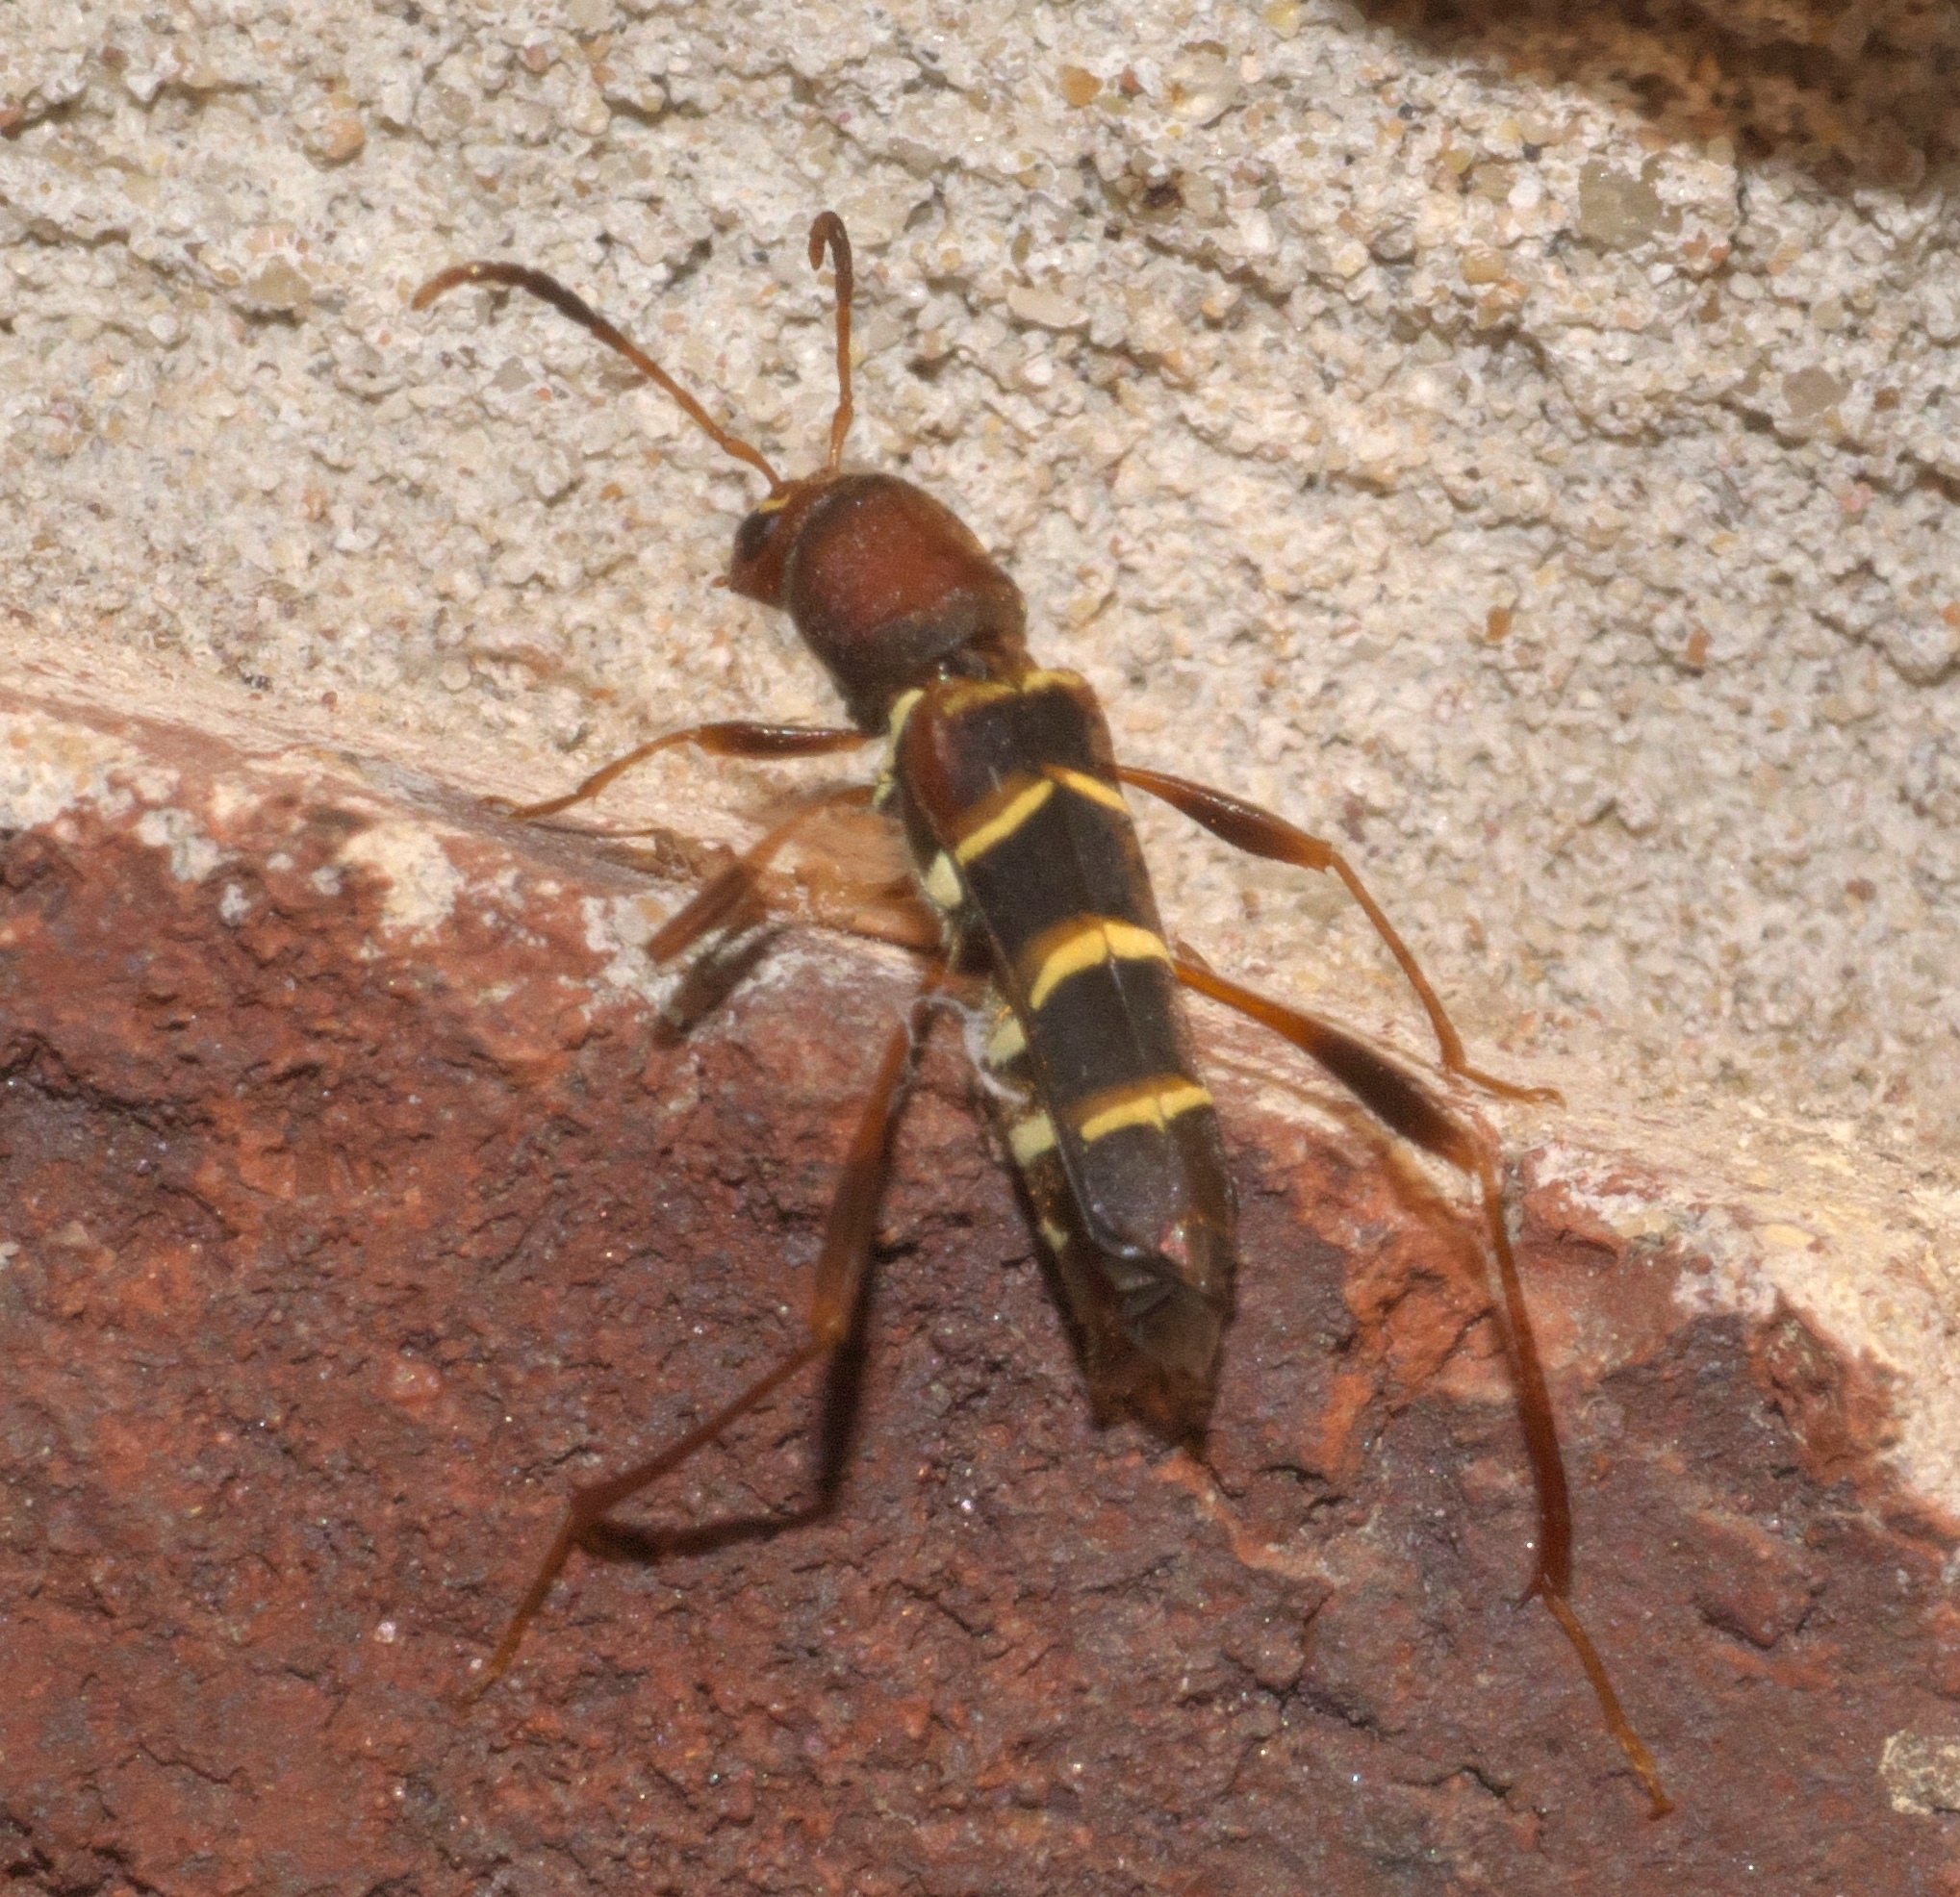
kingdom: Animalia
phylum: Arthropoda
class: Insecta
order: Coleoptera
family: Cerambycidae
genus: Neoclytus
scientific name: Neoclytus acuminatus
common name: Read-headed ash borer
